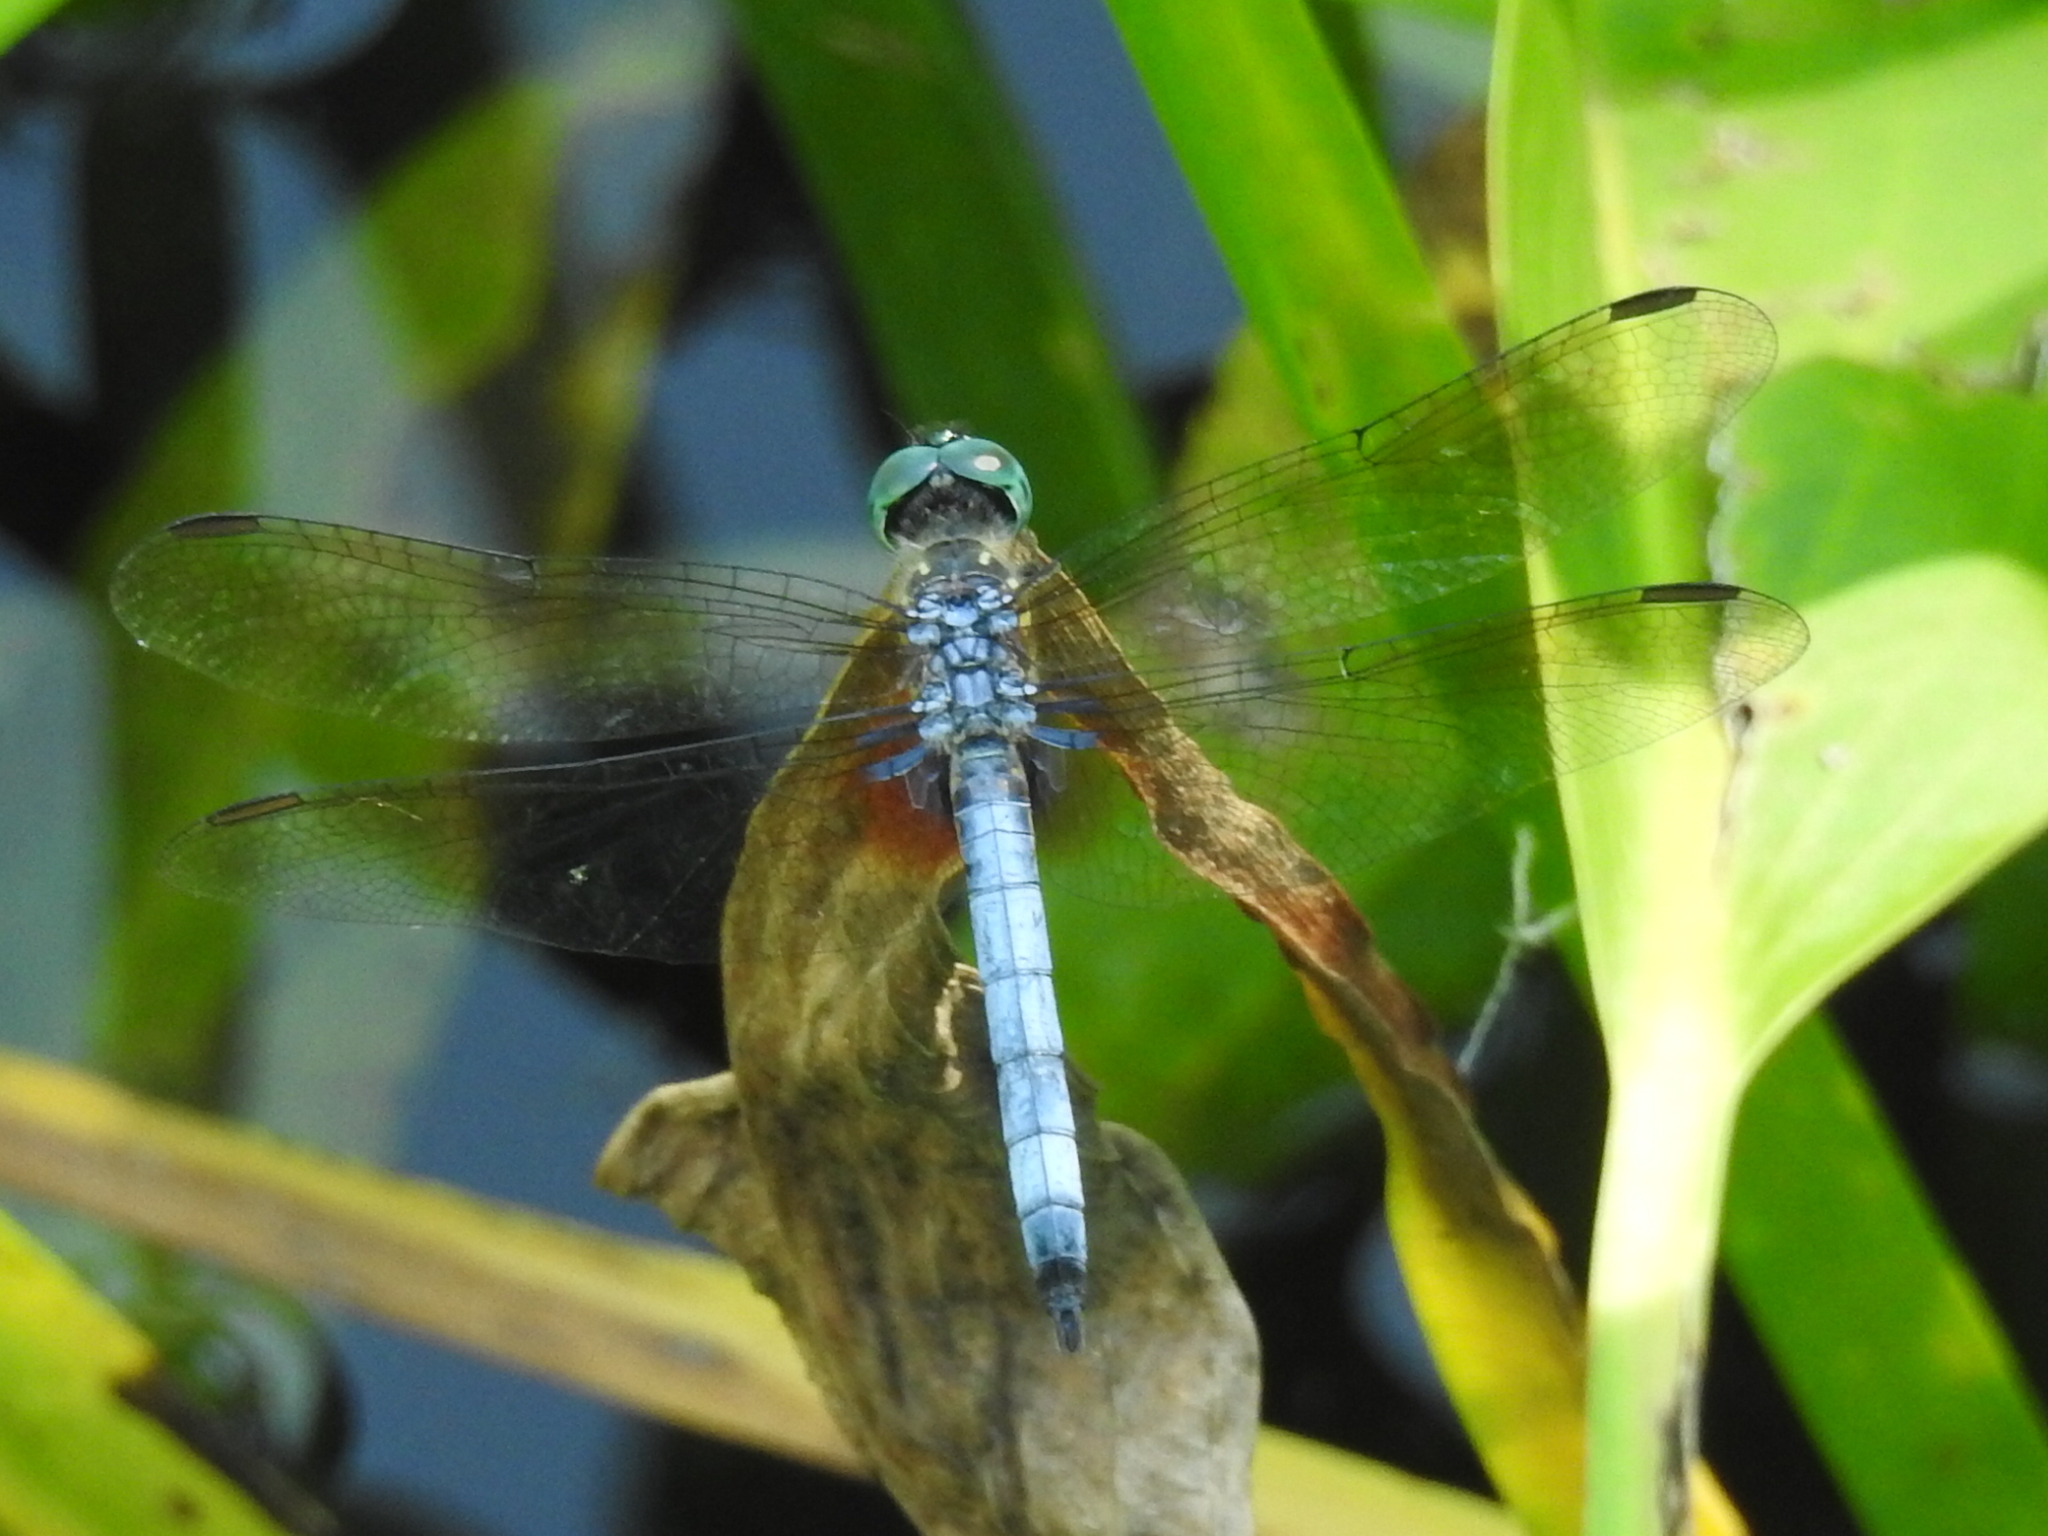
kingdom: Animalia
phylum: Arthropoda
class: Insecta
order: Odonata
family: Libellulidae
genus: Pachydiplax
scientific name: Pachydiplax longipennis
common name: Blue dasher
